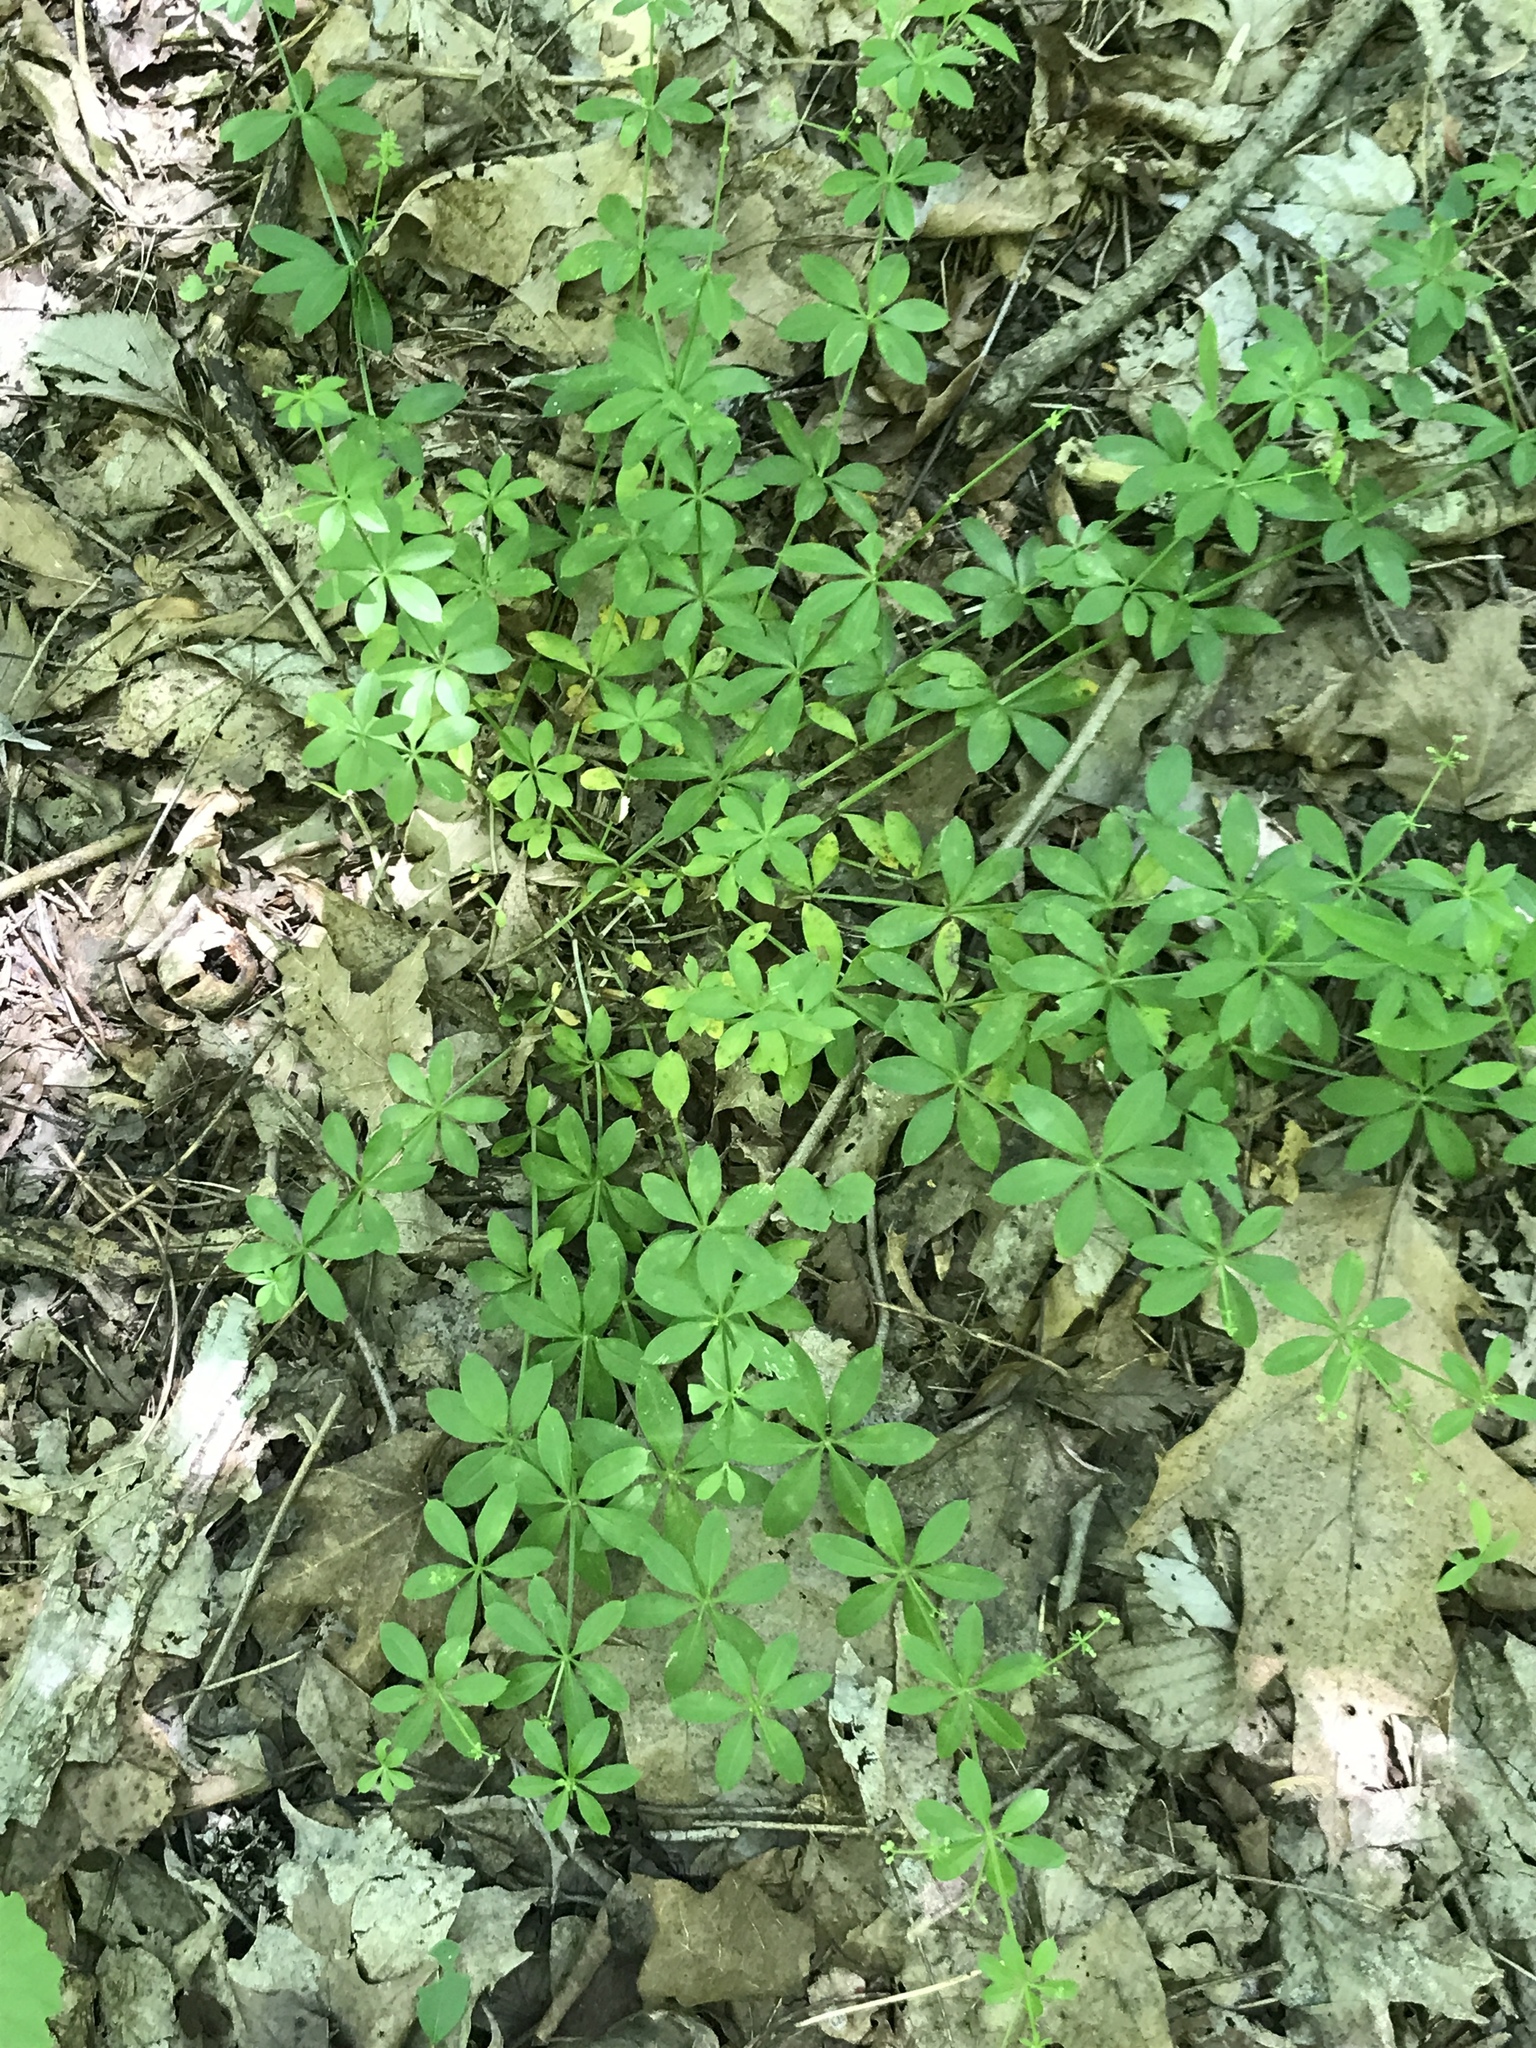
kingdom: Plantae
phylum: Tracheophyta
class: Magnoliopsida
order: Gentianales
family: Rubiaceae
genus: Galium
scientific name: Galium triflorum
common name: Fragrant bedstraw
